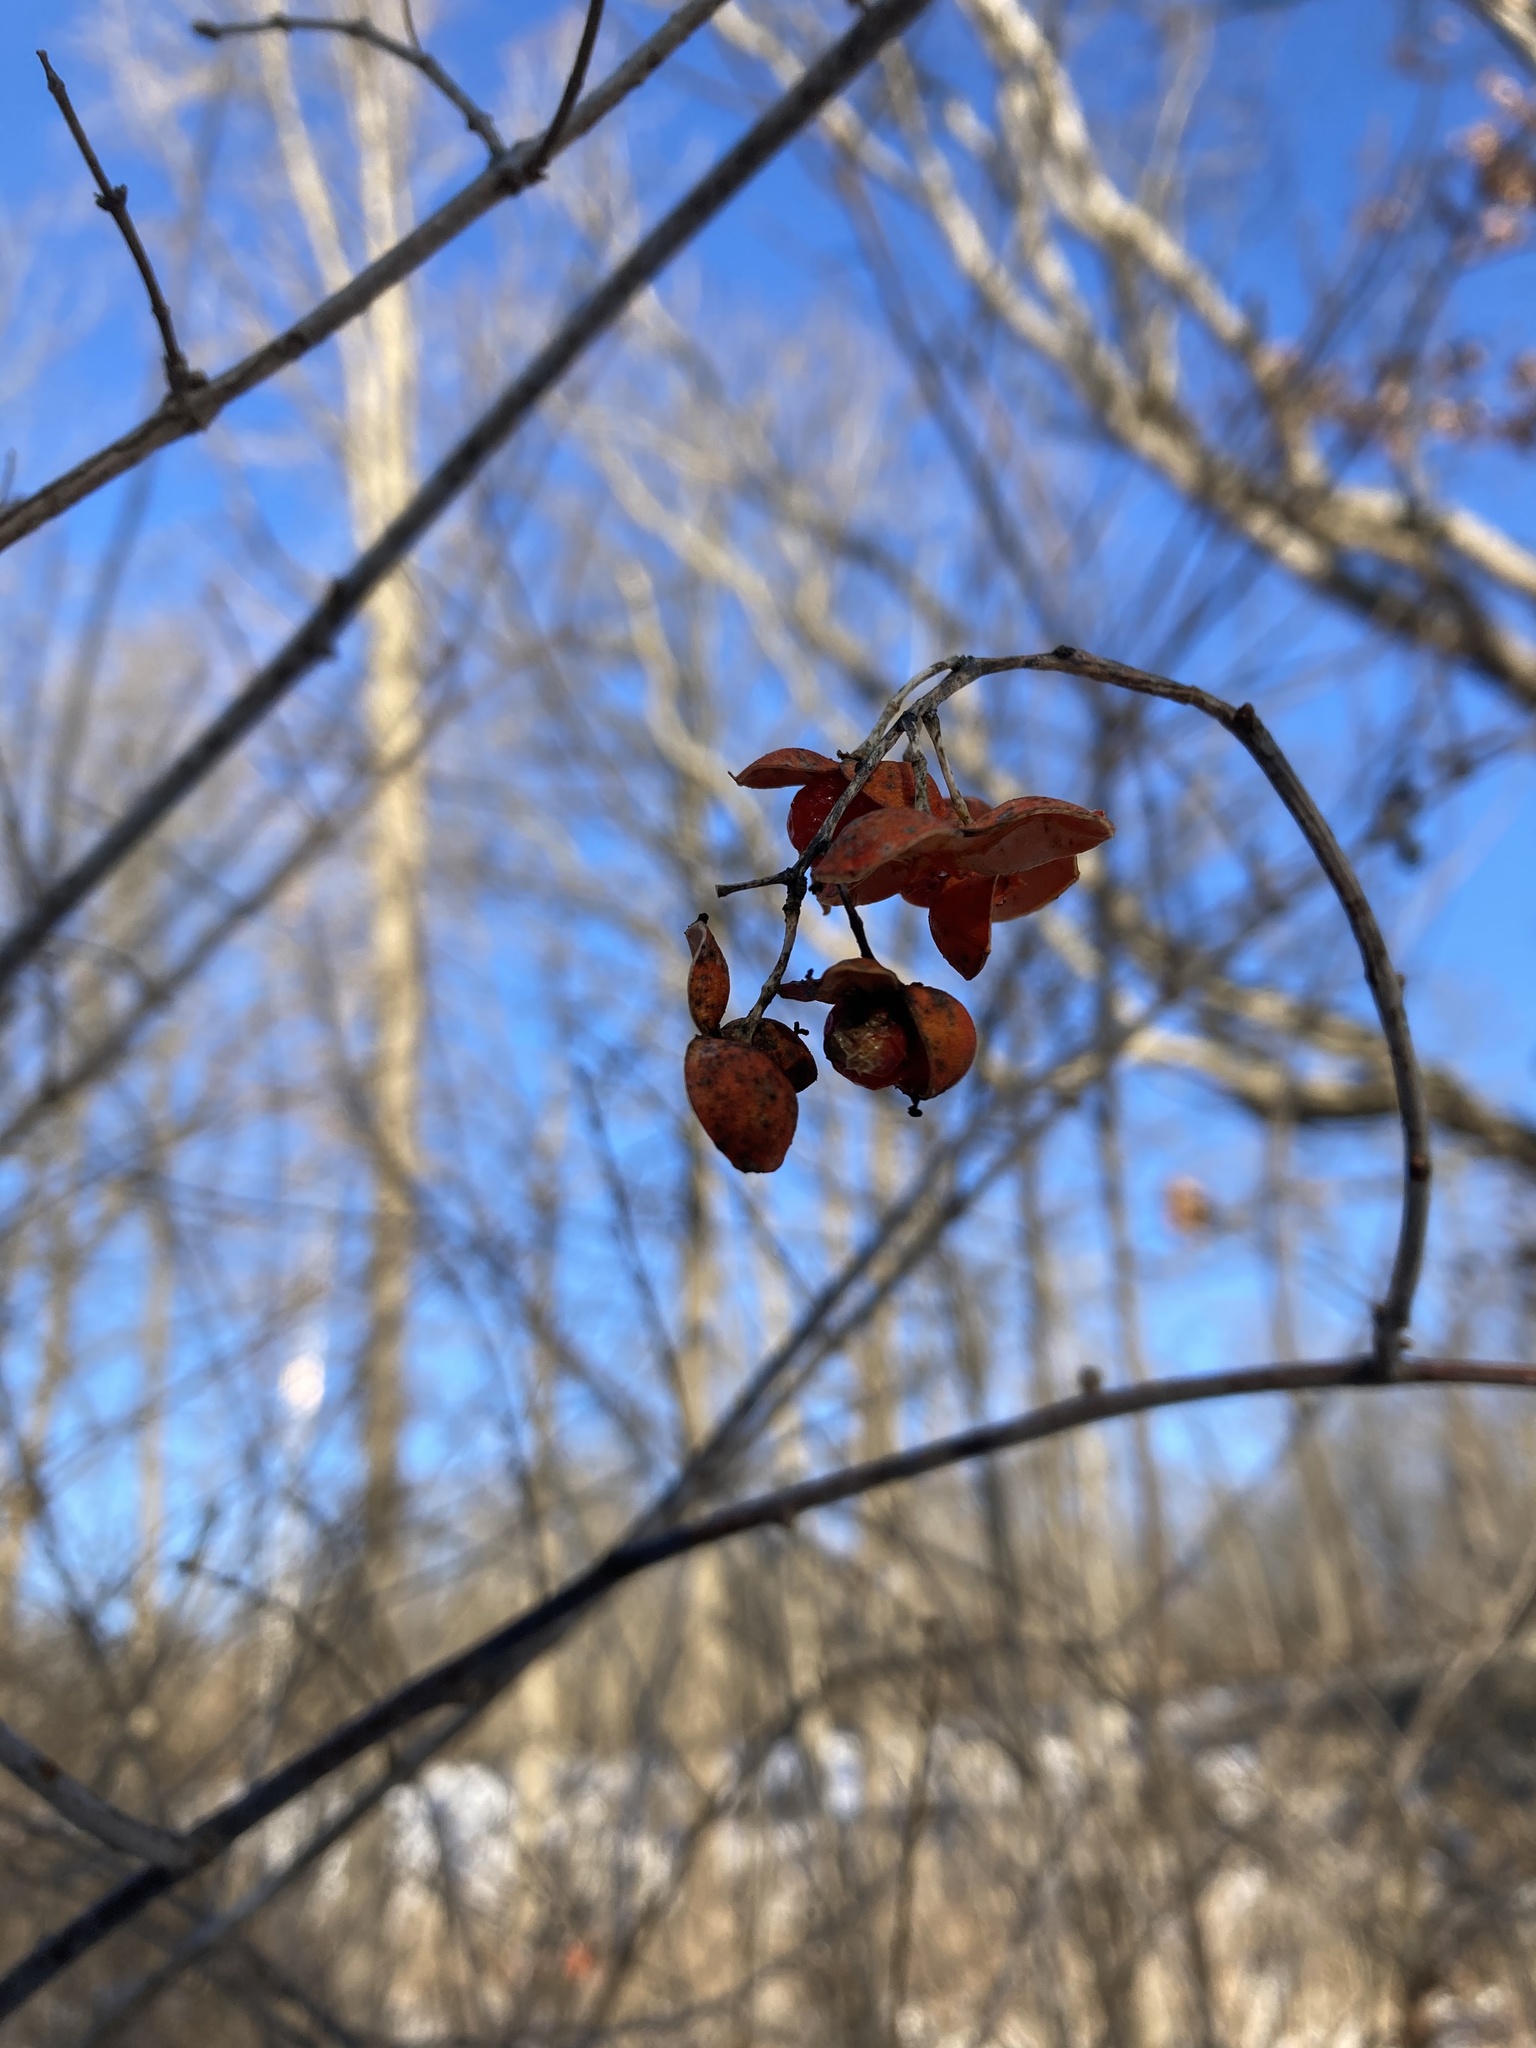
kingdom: Plantae
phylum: Tracheophyta
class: Magnoliopsida
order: Celastrales
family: Celastraceae
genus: Celastrus
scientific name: Celastrus scandens
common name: American bittersweet
